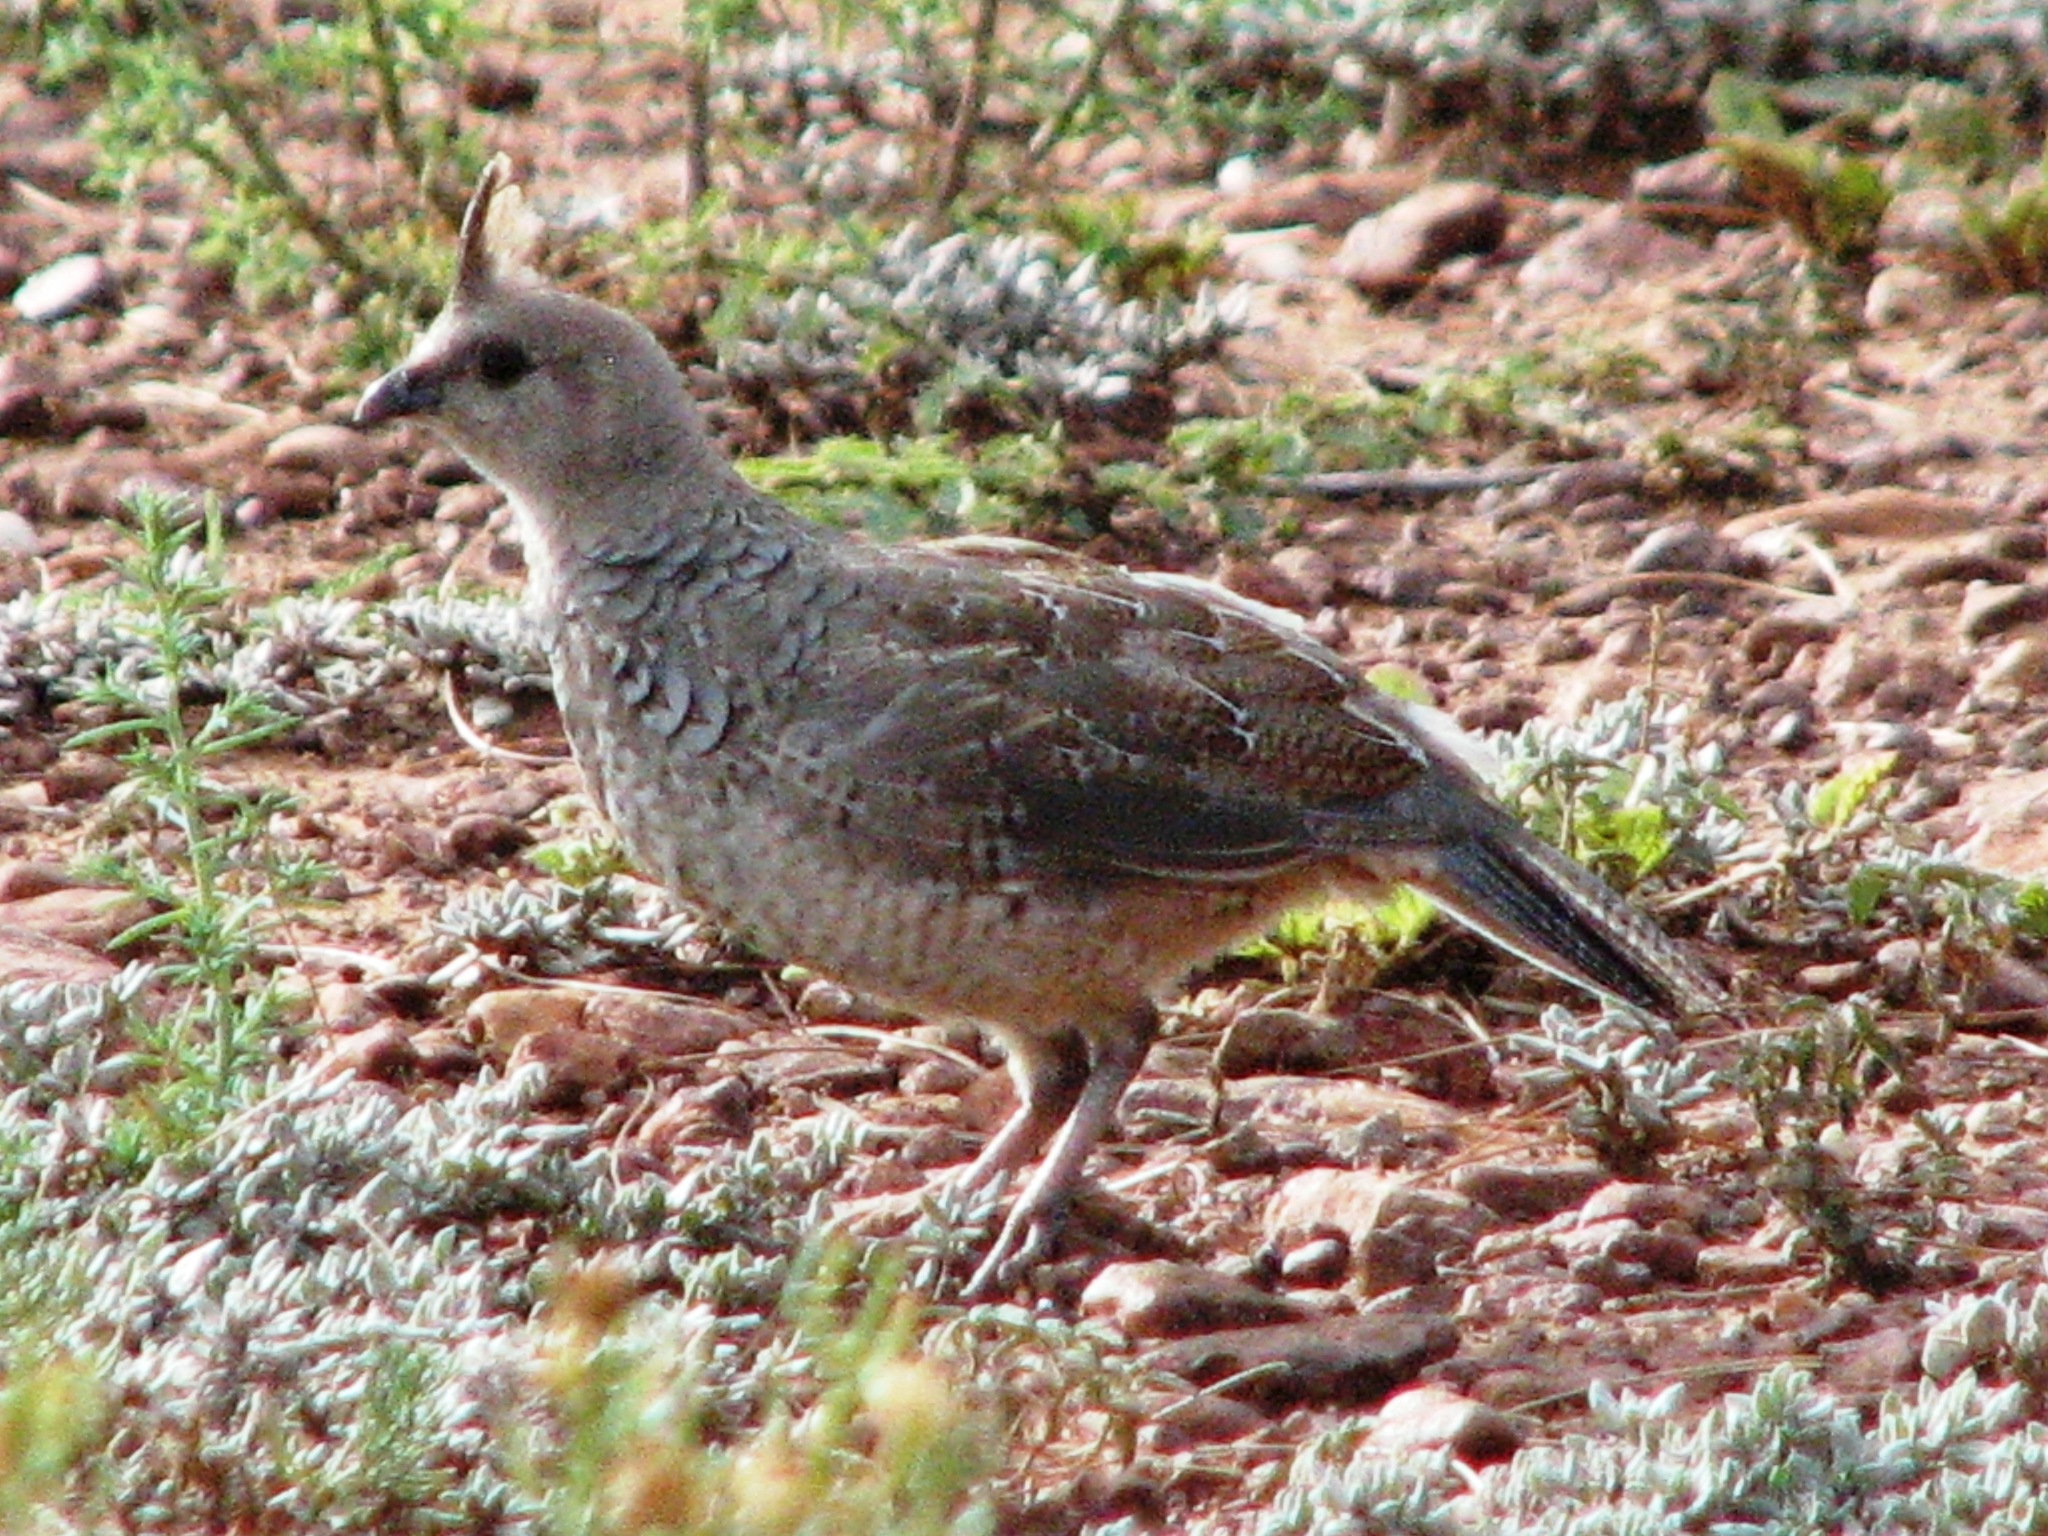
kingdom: Animalia
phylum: Chordata
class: Aves
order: Galliformes
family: Odontophoridae
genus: Callipepla
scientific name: Callipepla squamata
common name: Scaled quail
